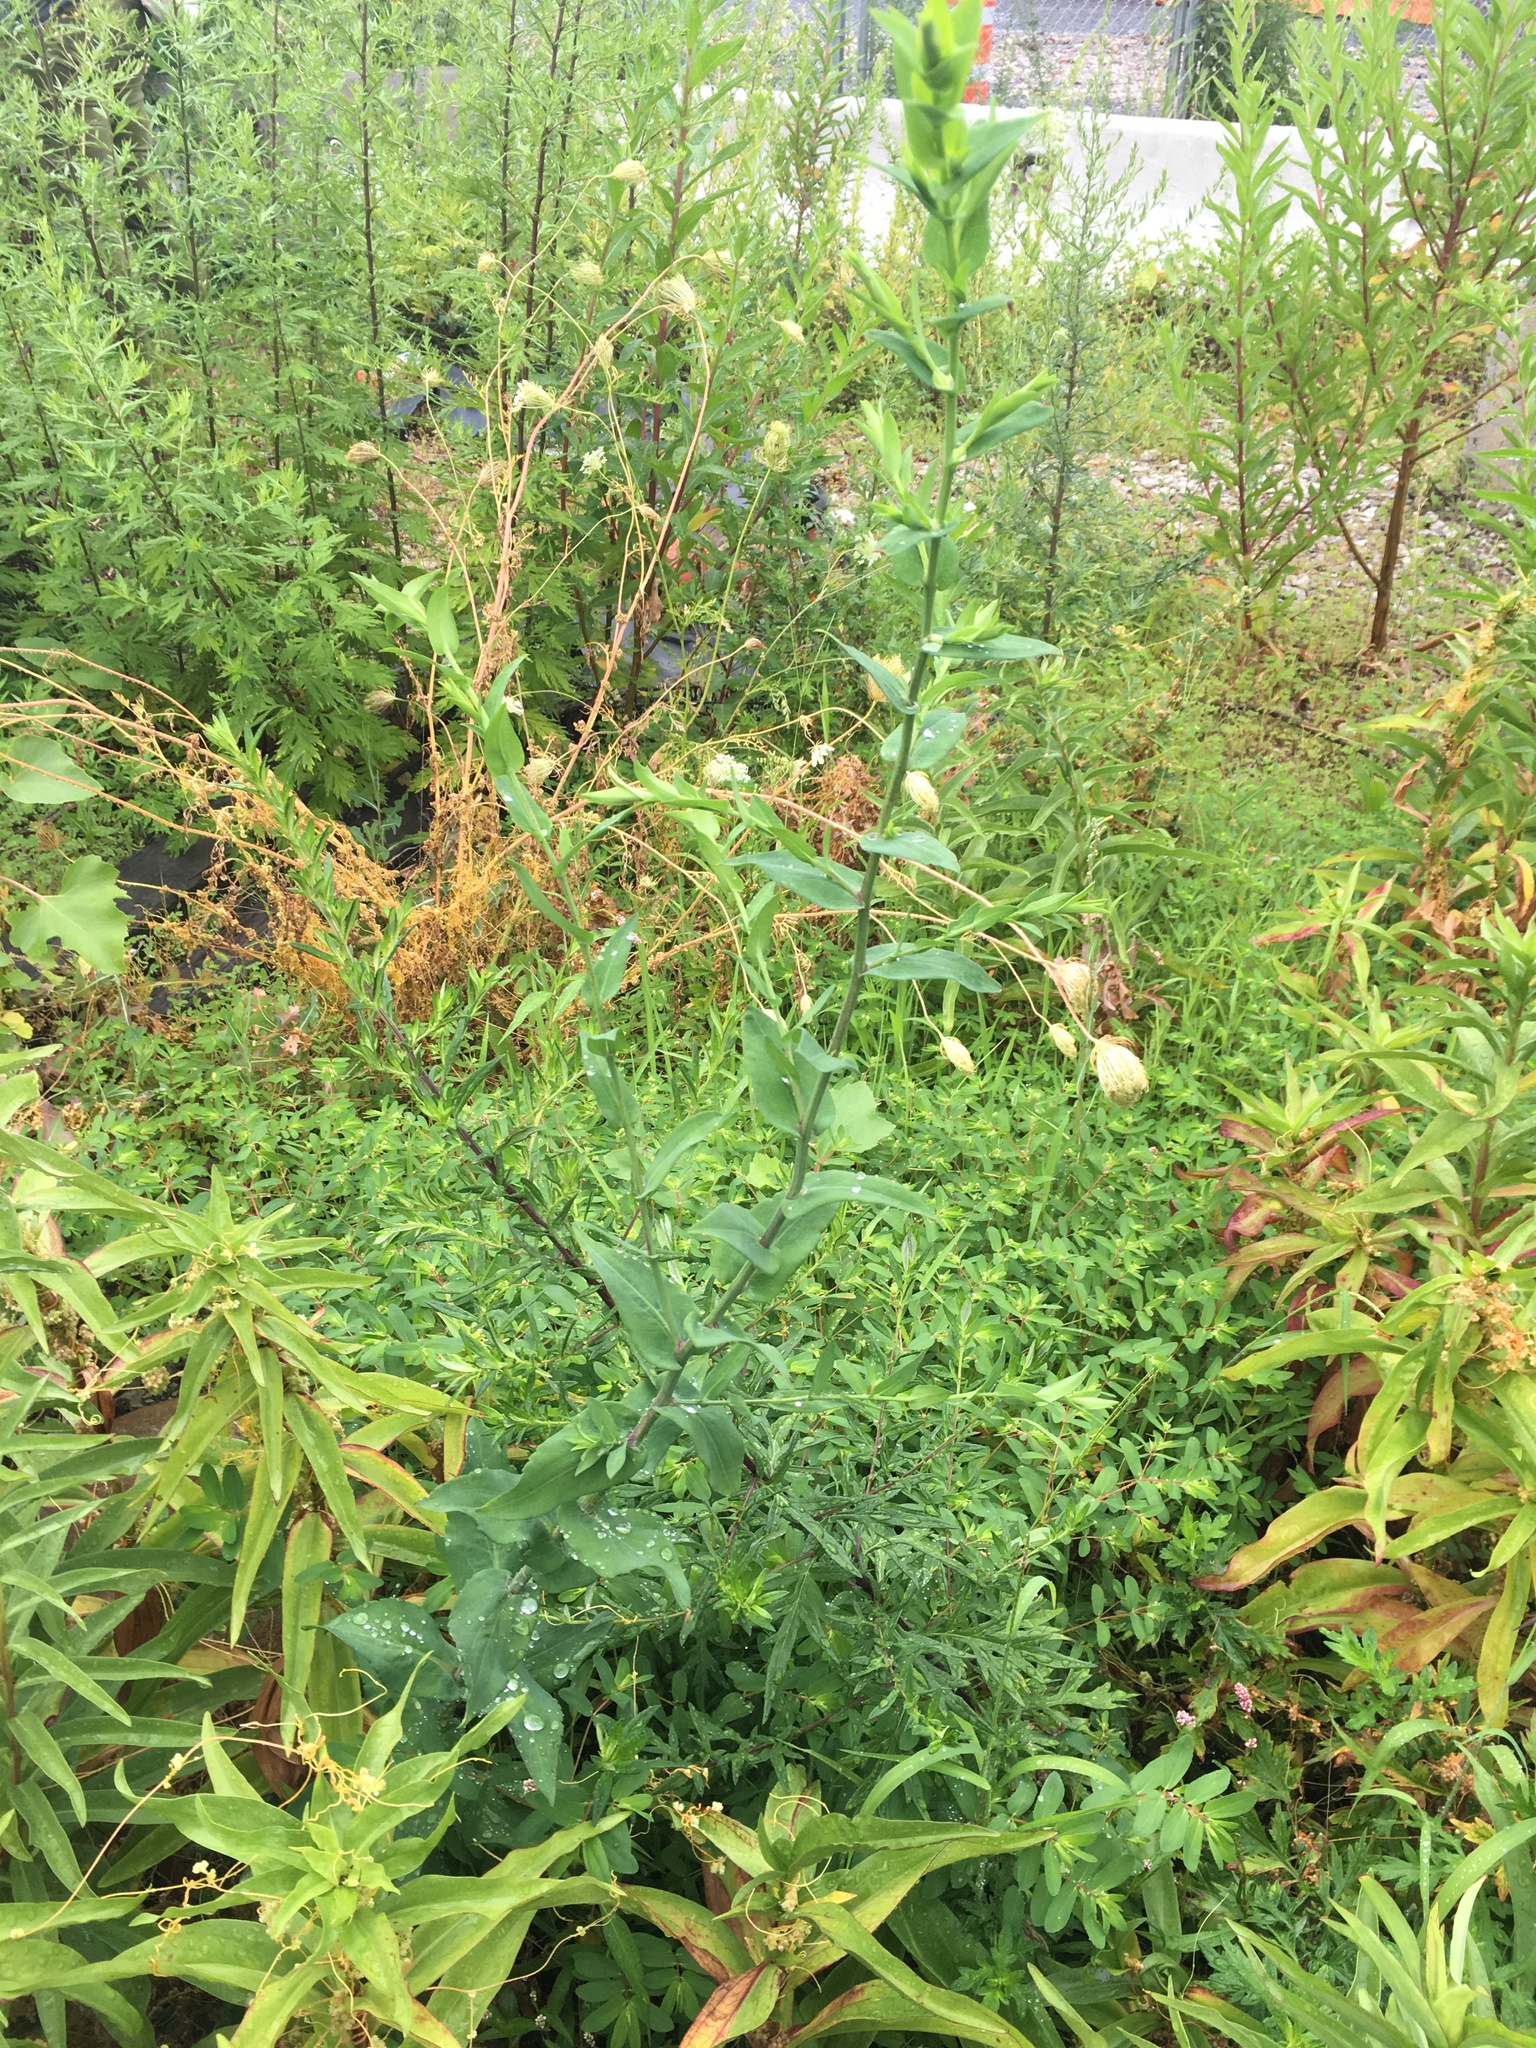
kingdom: Plantae
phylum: Tracheophyta
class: Magnoliopsida
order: Asterales
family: Asteraceae
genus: Symphyotrichum
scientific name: Symphyotrichum laeve
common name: Glaucous aster
